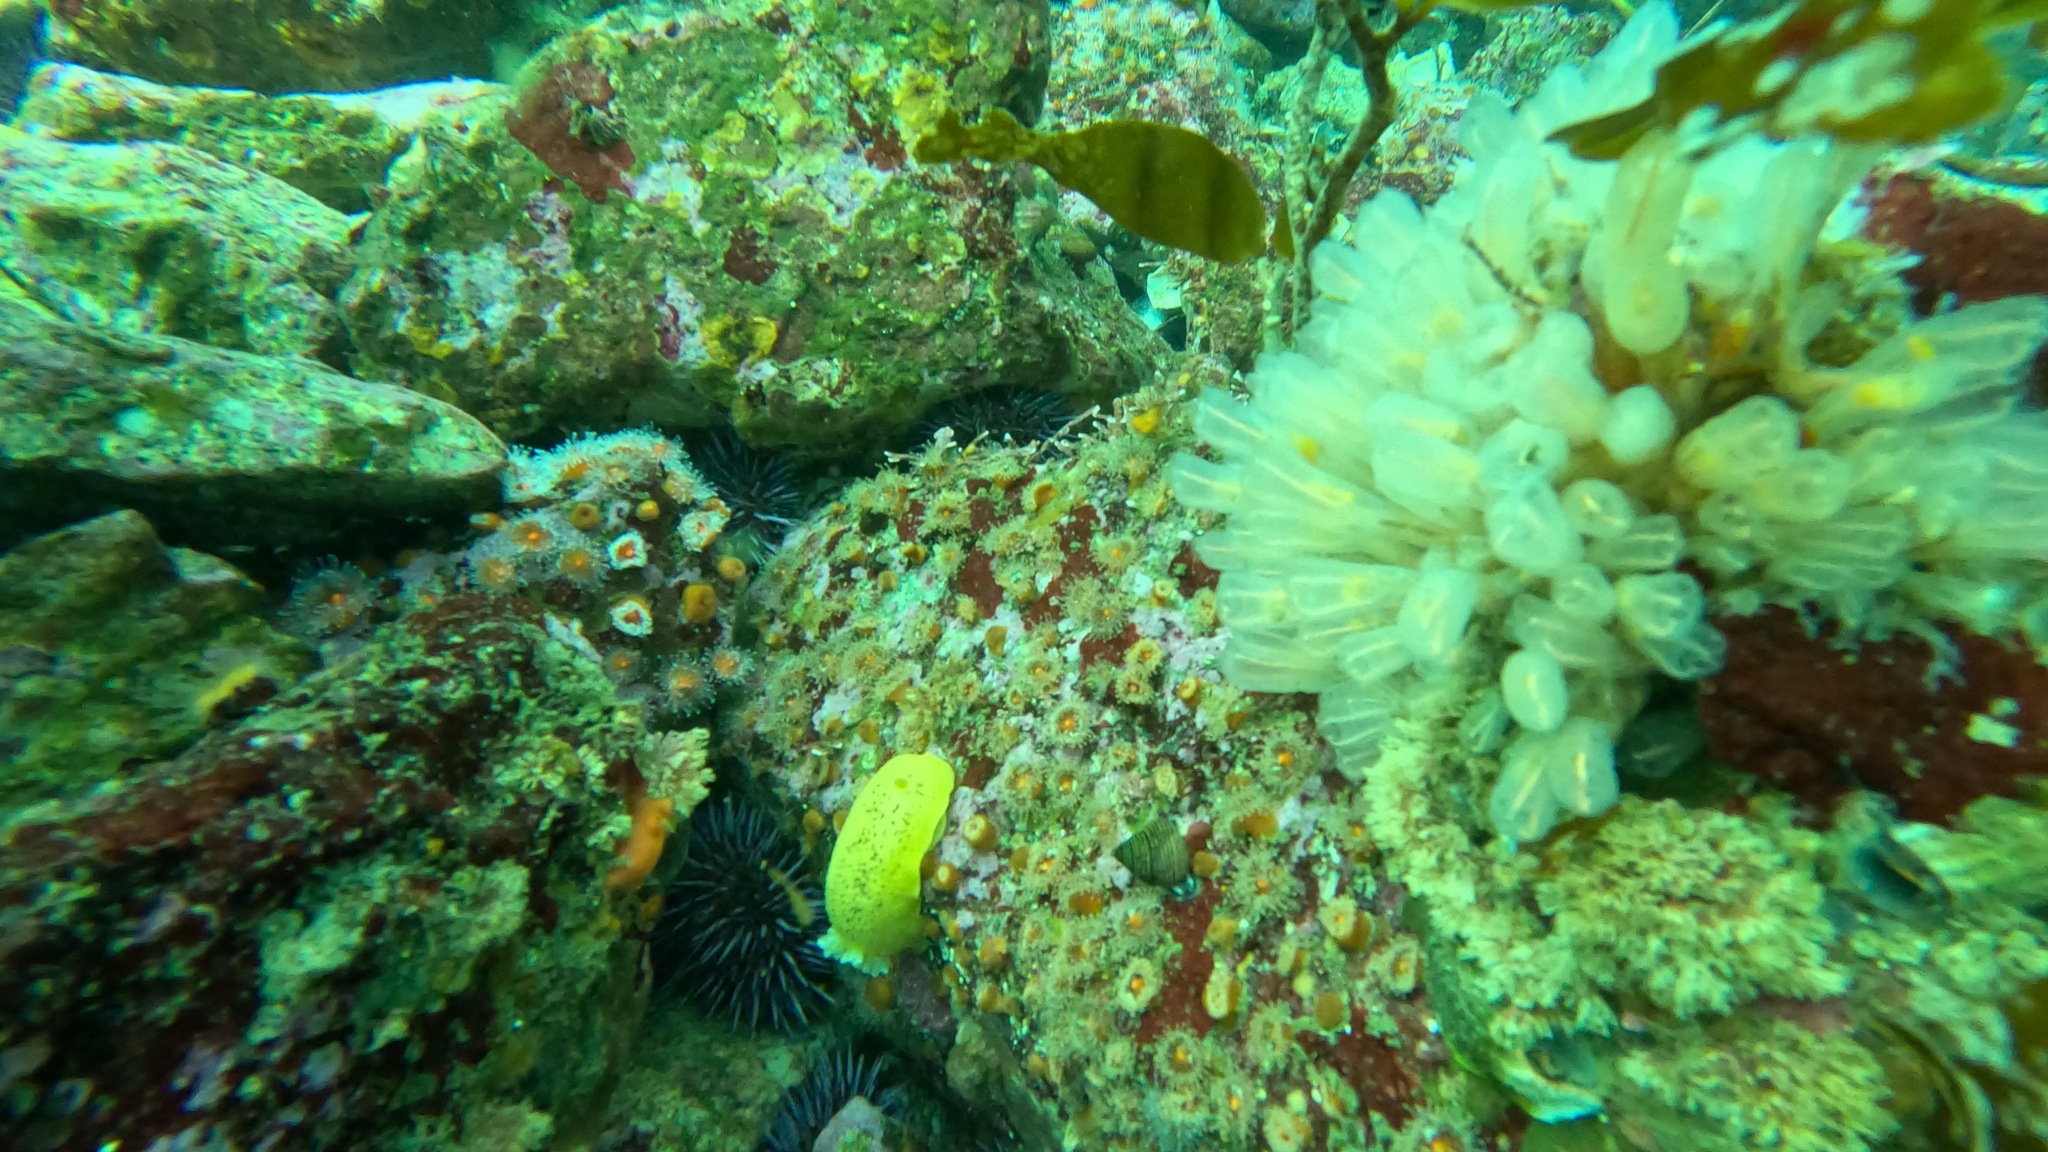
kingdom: Animalia
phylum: Chordata
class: Ascidiacea
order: Aplousobranchia
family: Clavelinidae
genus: Clavelina
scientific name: Clavelina huntsmani
